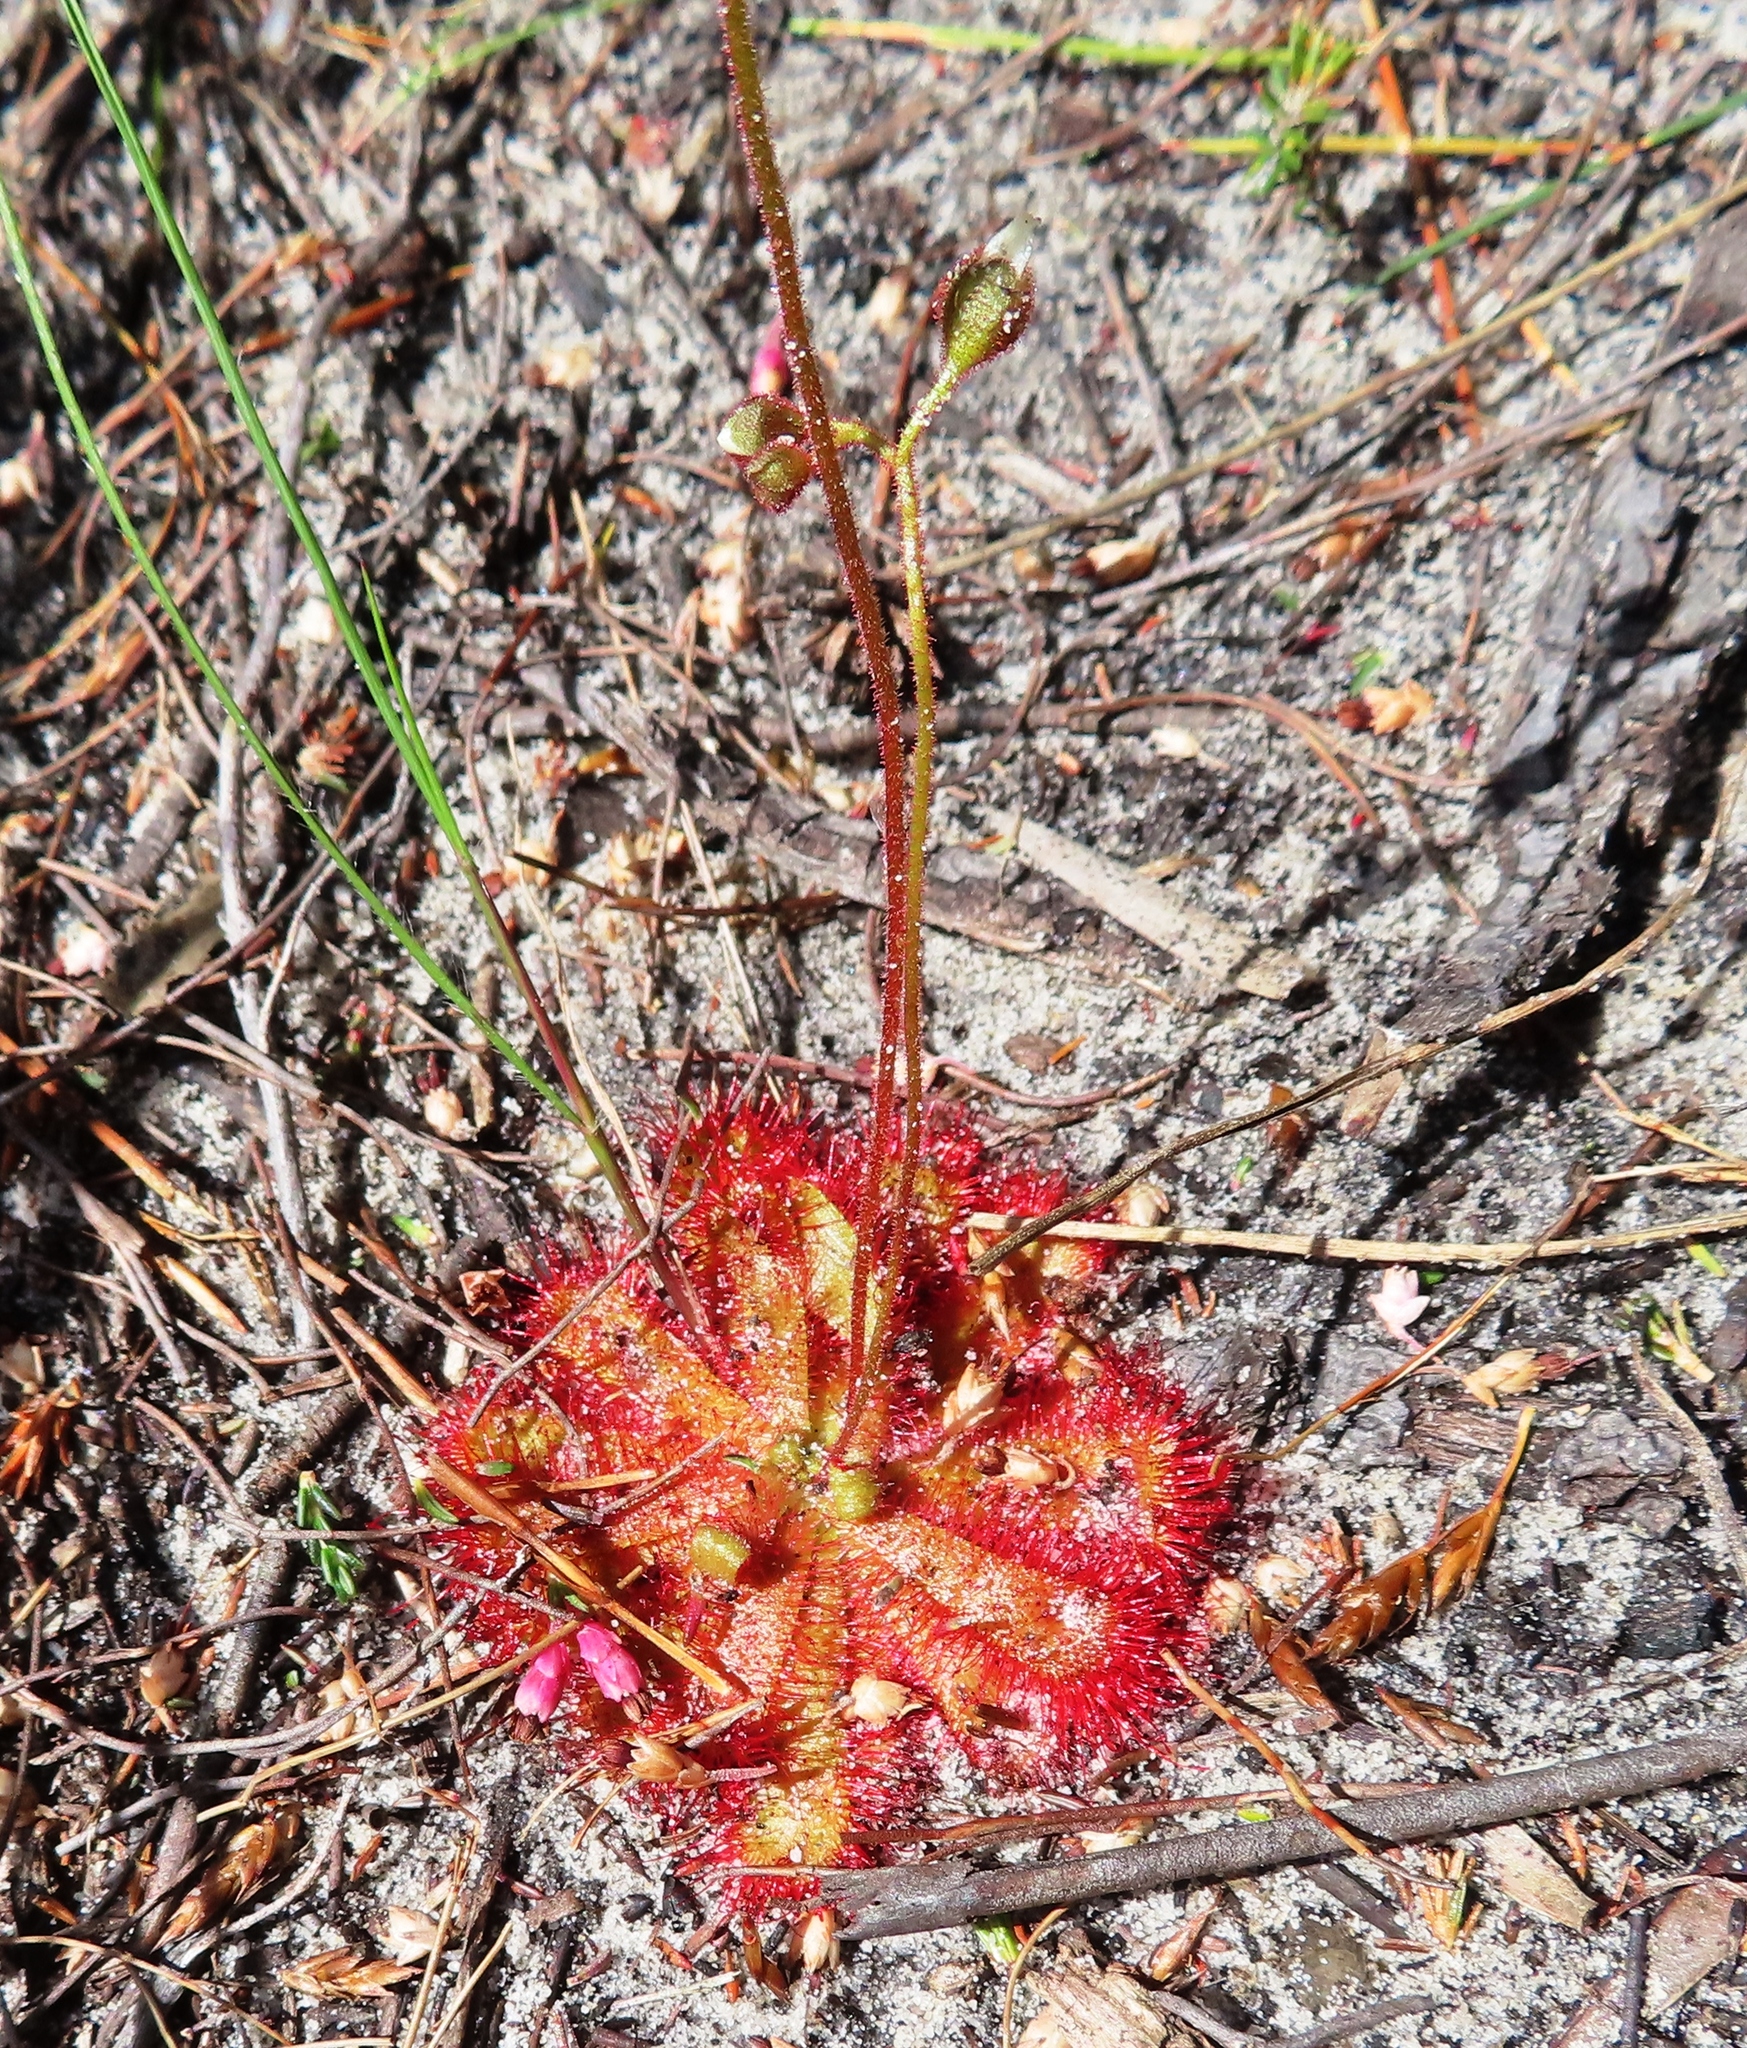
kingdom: Plantae
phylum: Tracheophyta
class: Magnoliopsida
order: Caryophyllales
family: Droseraceae
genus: Drosera
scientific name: Drosera trinervia
